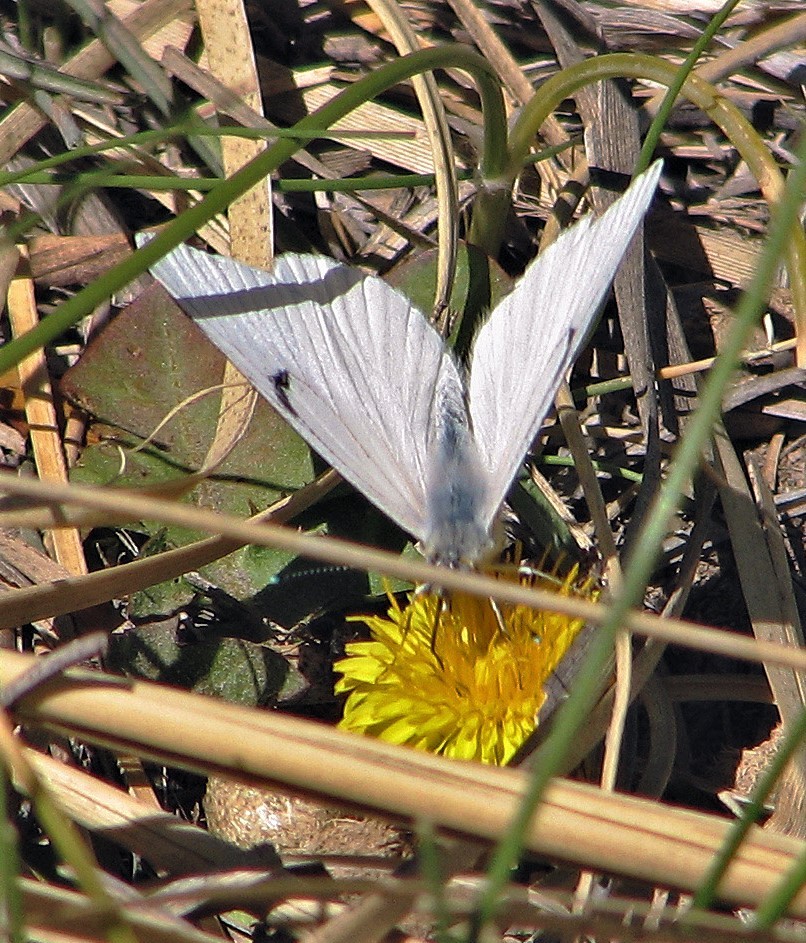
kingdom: Animalia
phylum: Arthropoda
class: Insecta
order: Lepidoptera
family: Pieridae
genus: Tatochila
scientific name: Tatochila mercedis
